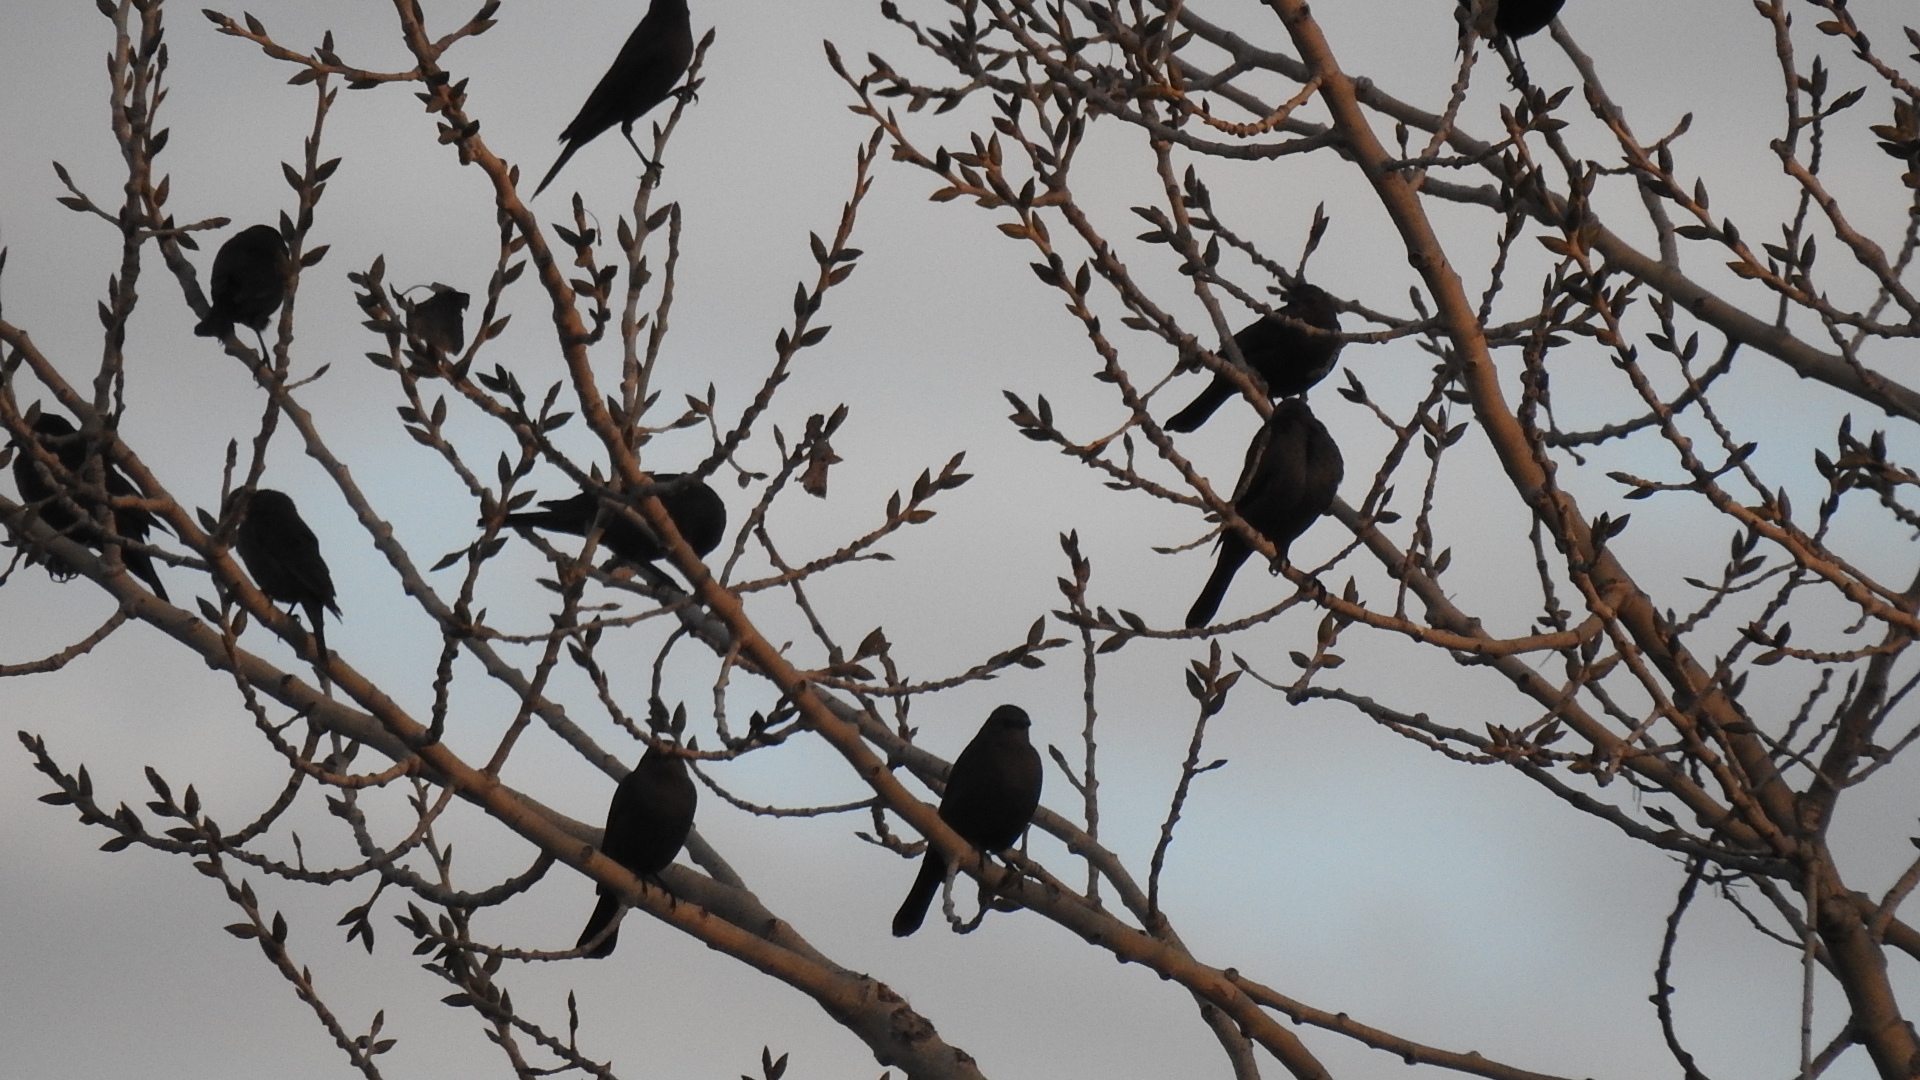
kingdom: Animalia
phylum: Chordata
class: Aves
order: Passeriformes
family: Icteridae
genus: Euphagus
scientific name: Euphagus cyanocephalus
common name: Brewer's blackbird
